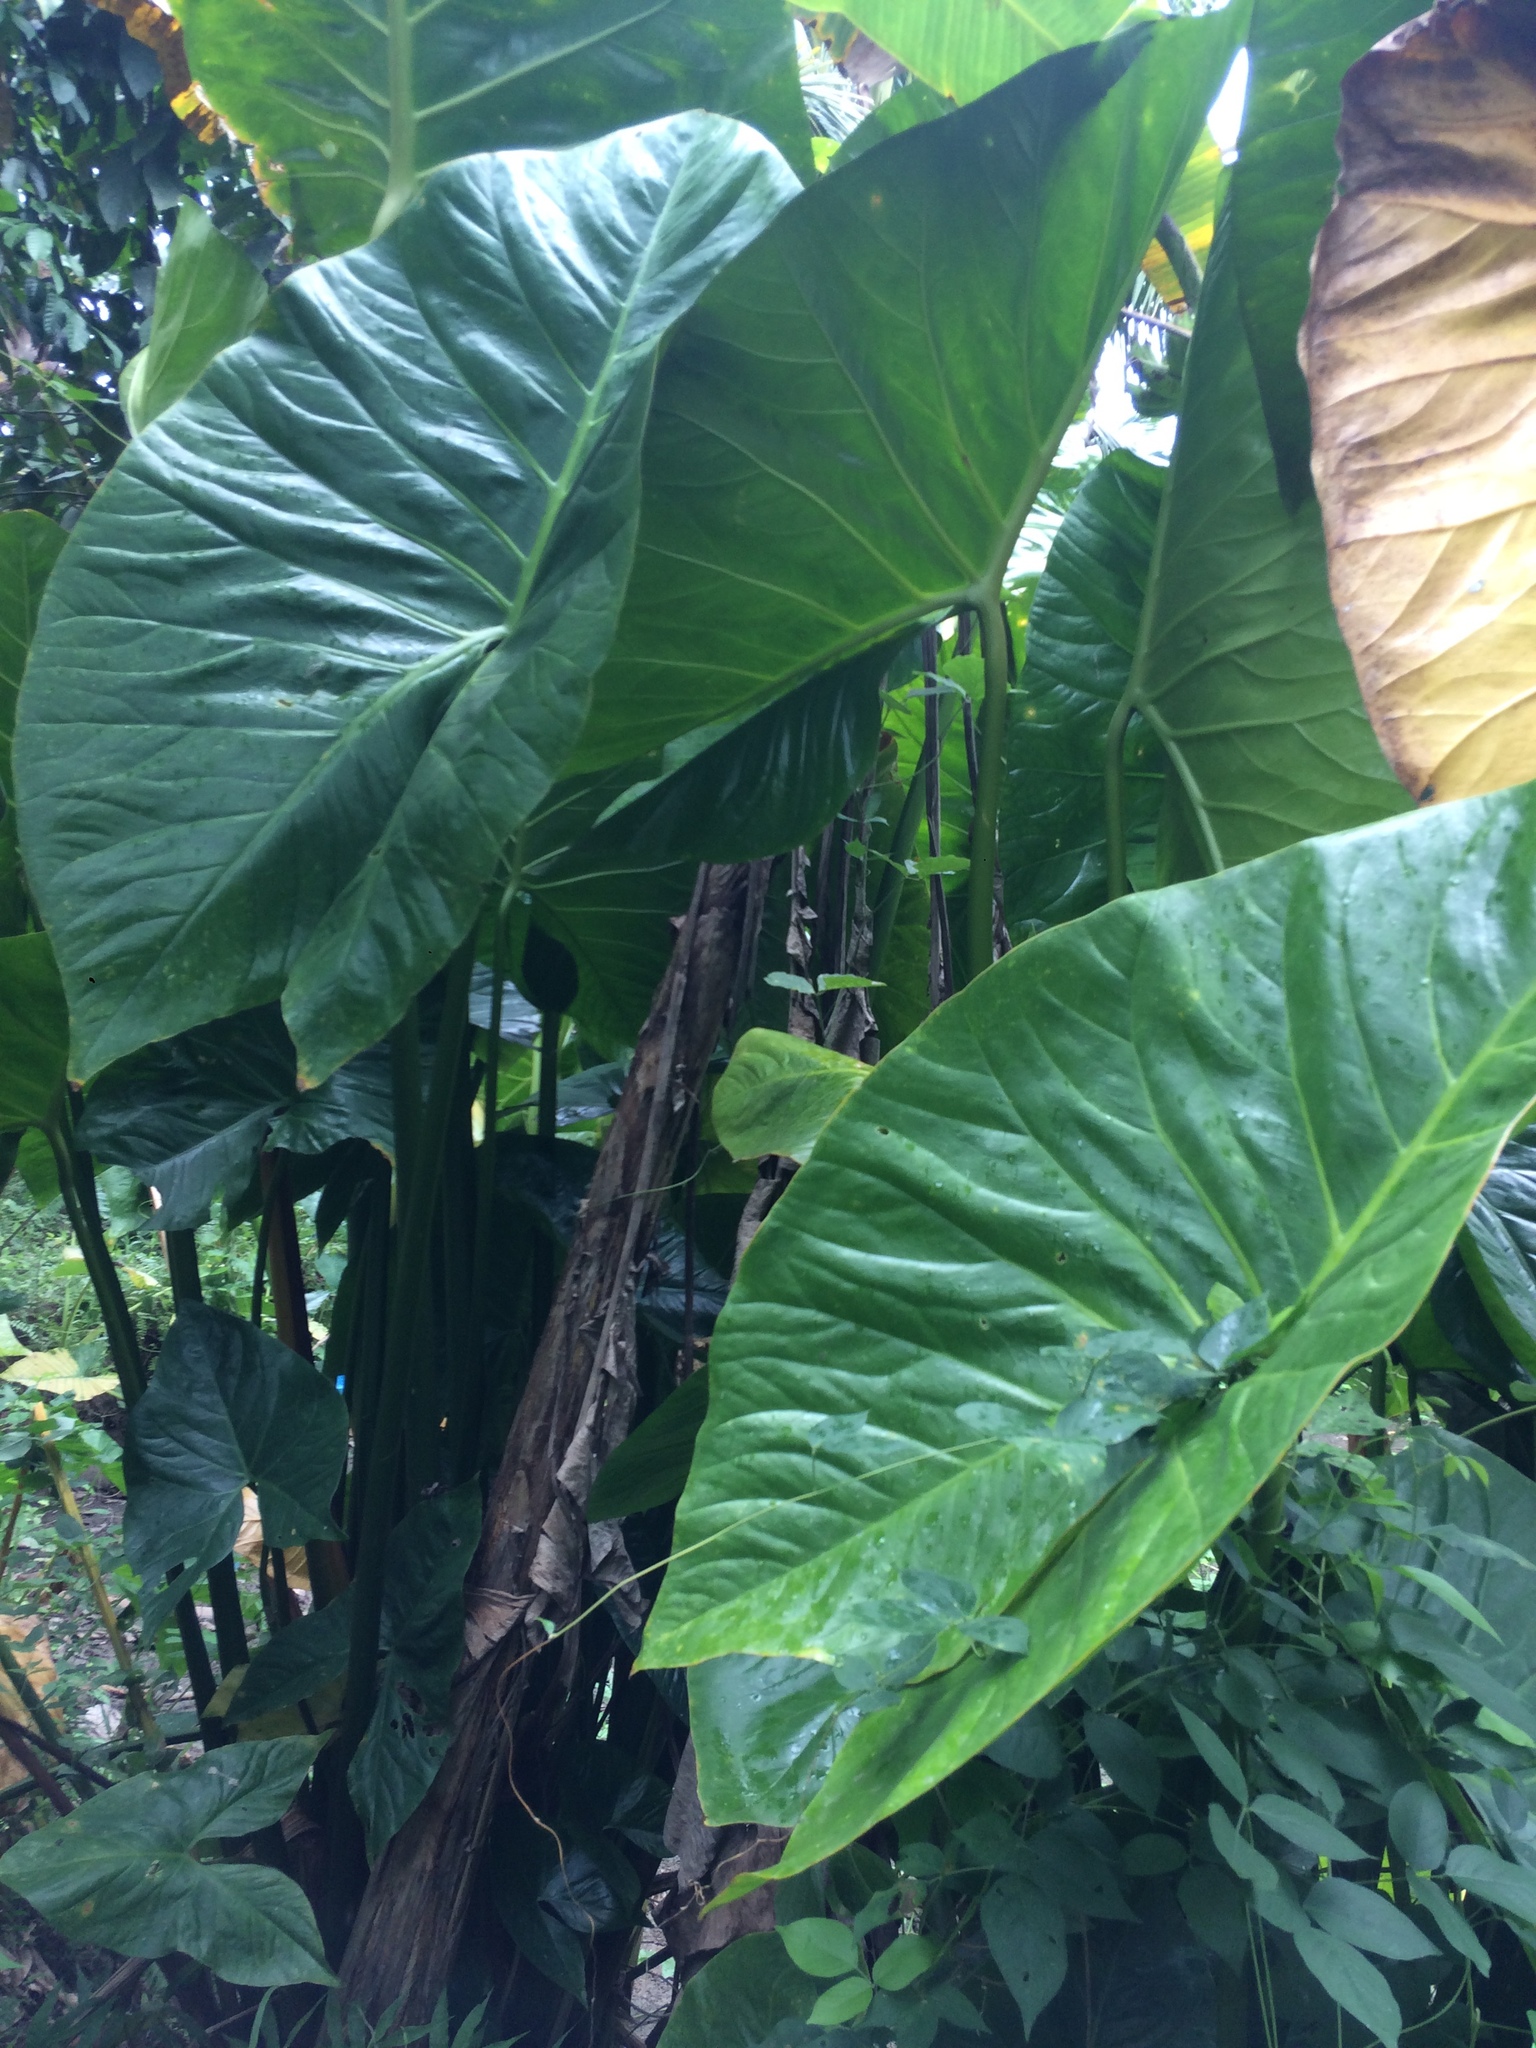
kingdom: Plantae
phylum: Tracheophyta
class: Liliopsida
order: Alismatales
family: Araceae
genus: Cyrtosperma
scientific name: Cyrtosperma merkusii
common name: Giant swamp-taro
